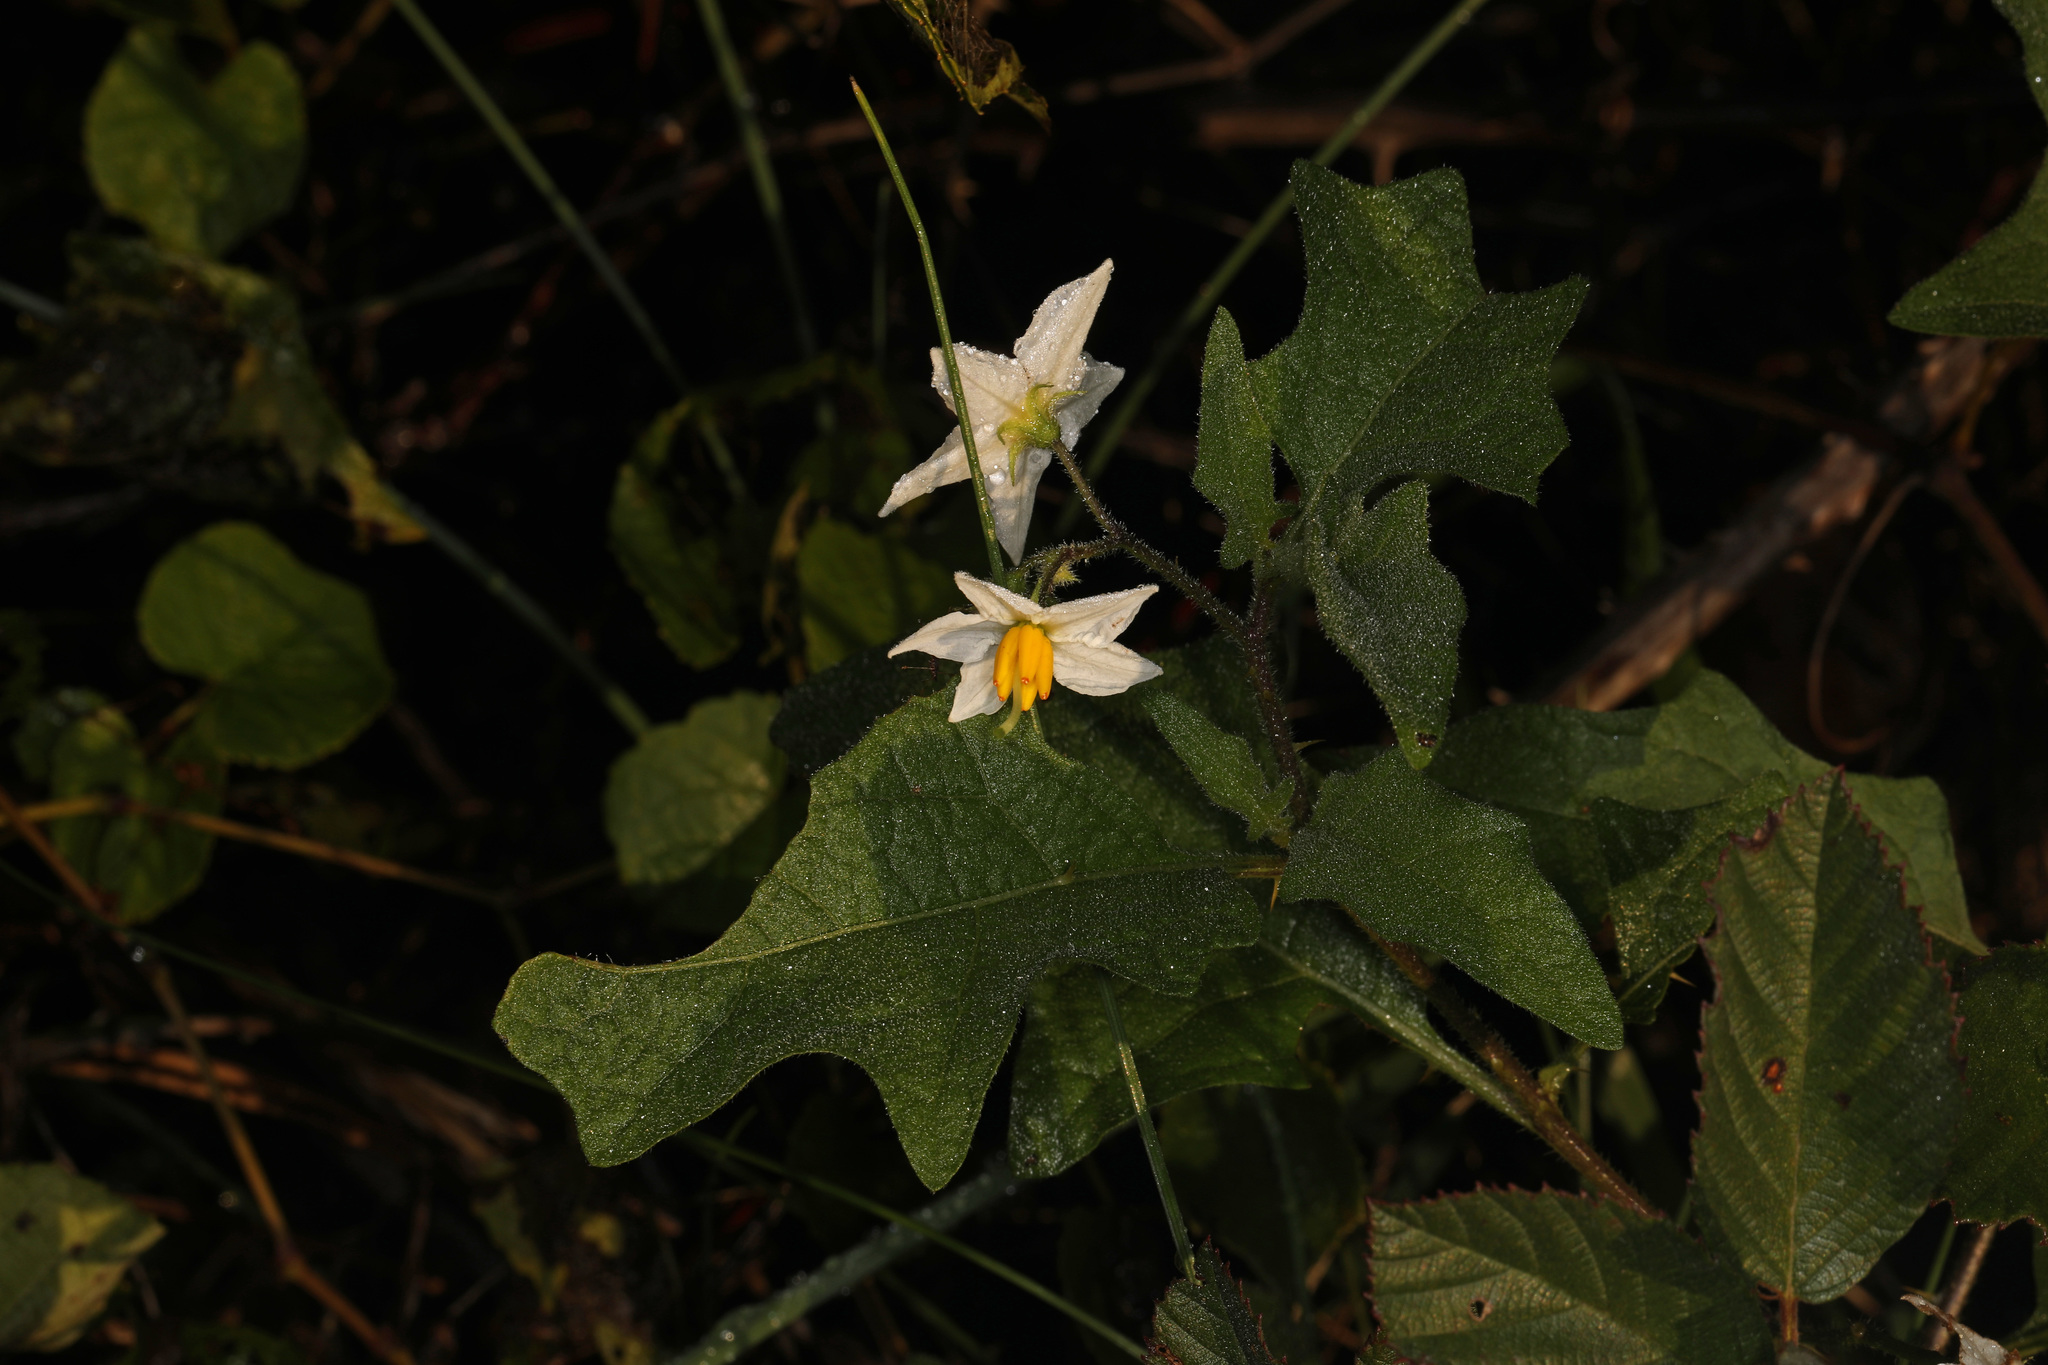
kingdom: Plantae
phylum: Tracheophyta
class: Magnoliopsida
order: Solanales
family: Solanaceae
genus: Solanum
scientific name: Solanum carolinense
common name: Horse-nettle
